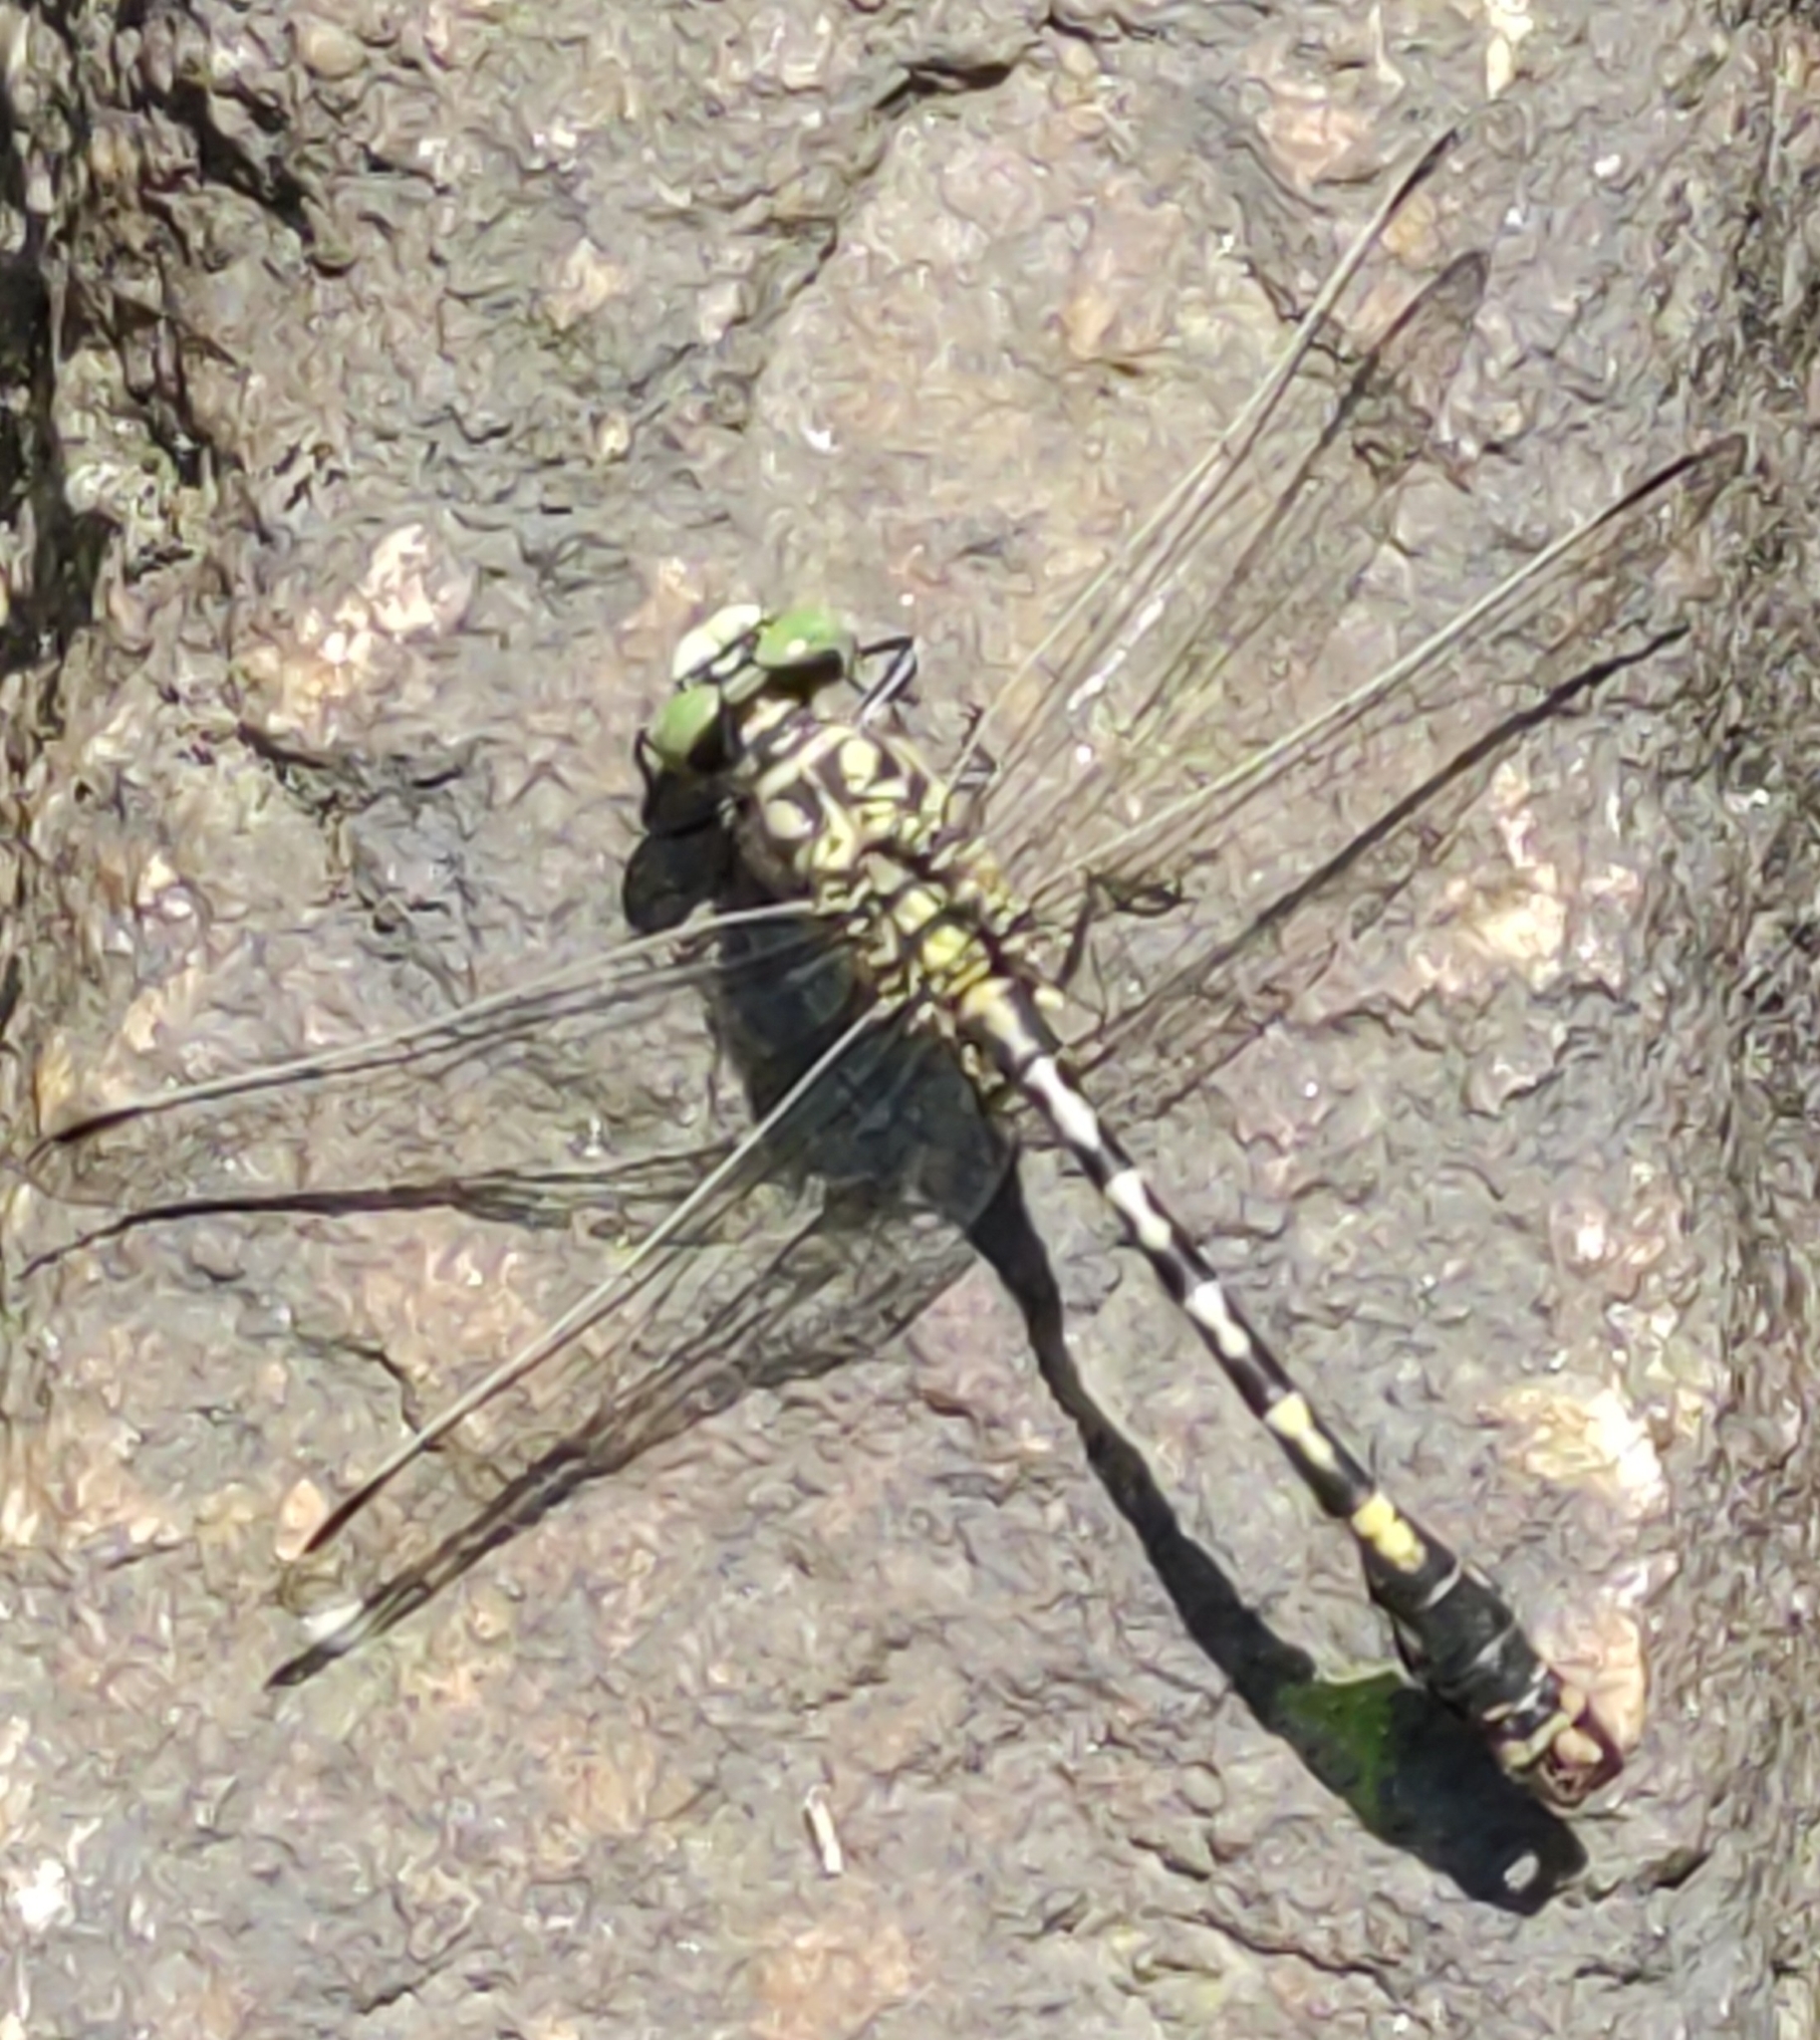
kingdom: Animalia
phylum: Arthropoda
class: Insecta
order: Odonata
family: Gomphidae
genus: Onychogomphus
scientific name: Onychogomphus forcipatus
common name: Small pincertail
